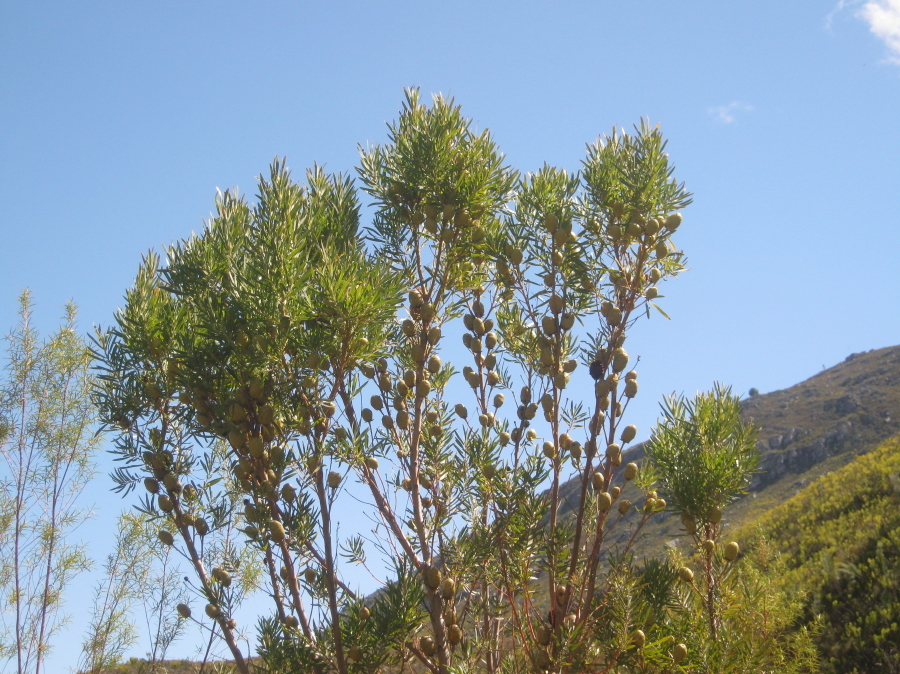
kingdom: Plantae
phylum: Tracheophyta
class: Magnoliopsida
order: Proteales
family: Proteaceae
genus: Leucadendron
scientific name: Leucadendron salicifolium
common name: Common stream conebush
